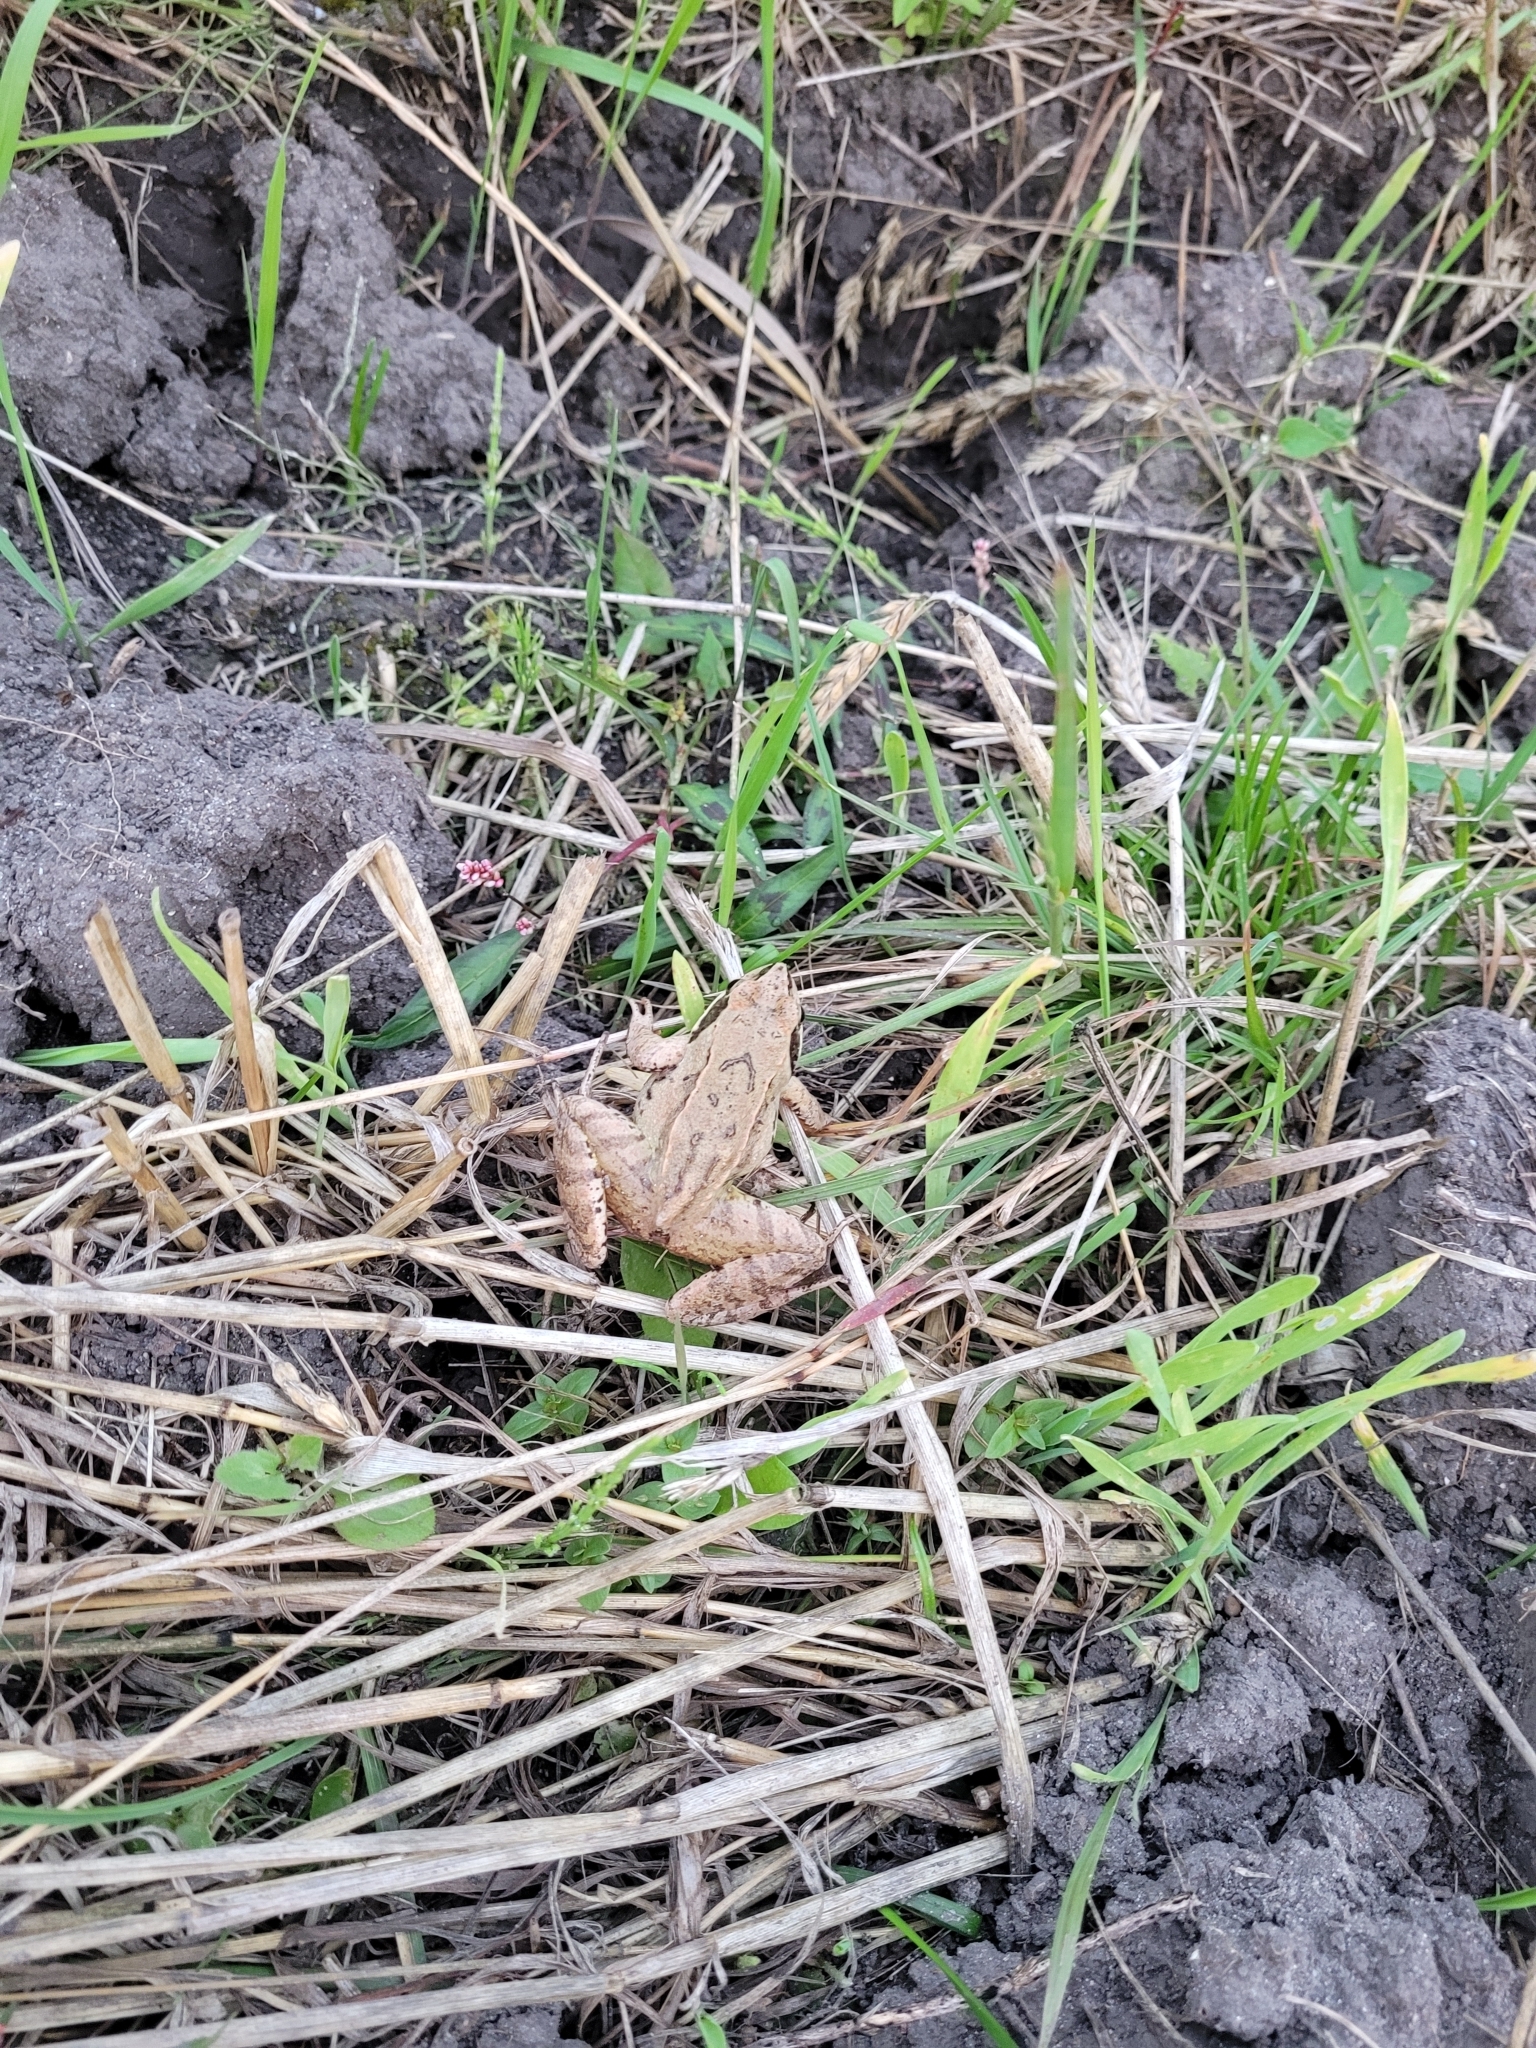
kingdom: Animalia
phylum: Chordata
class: Amphibia
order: Anura
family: Ranidae
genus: Rana
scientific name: Rana arvalis
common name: Moor frog
